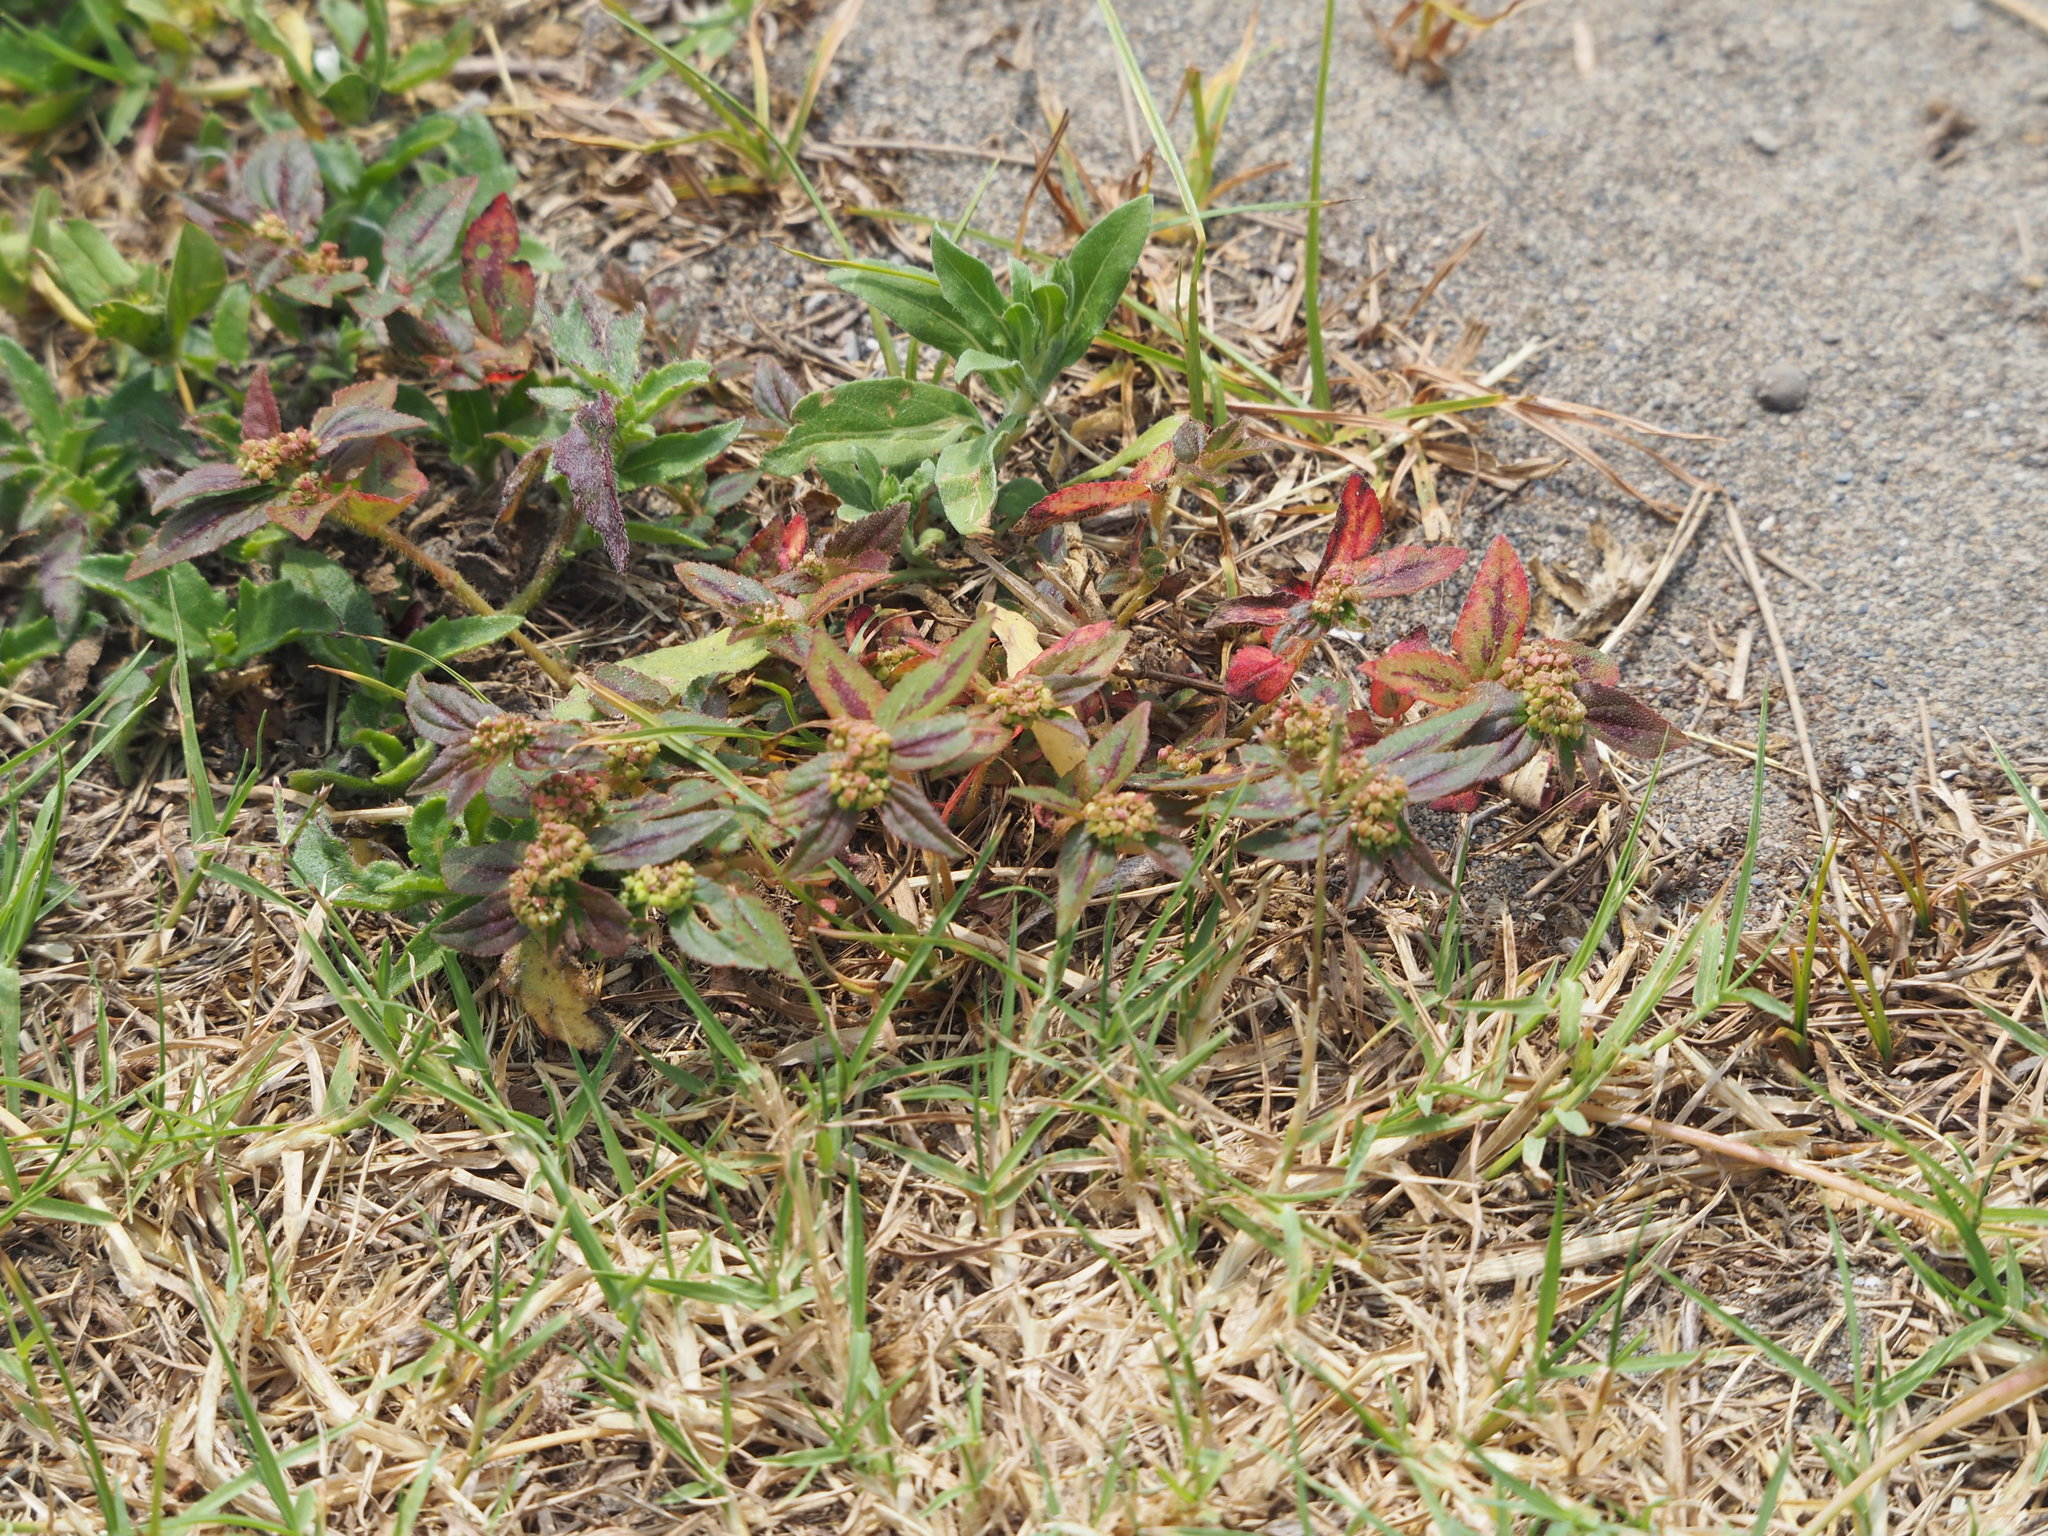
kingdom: Plantae
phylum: Tracheophyta
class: Magnoliopsida
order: Malpighiales
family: Euphorbiaceae
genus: Euphorbia
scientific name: Euphorbia hirta
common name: Pillpod sandmat
